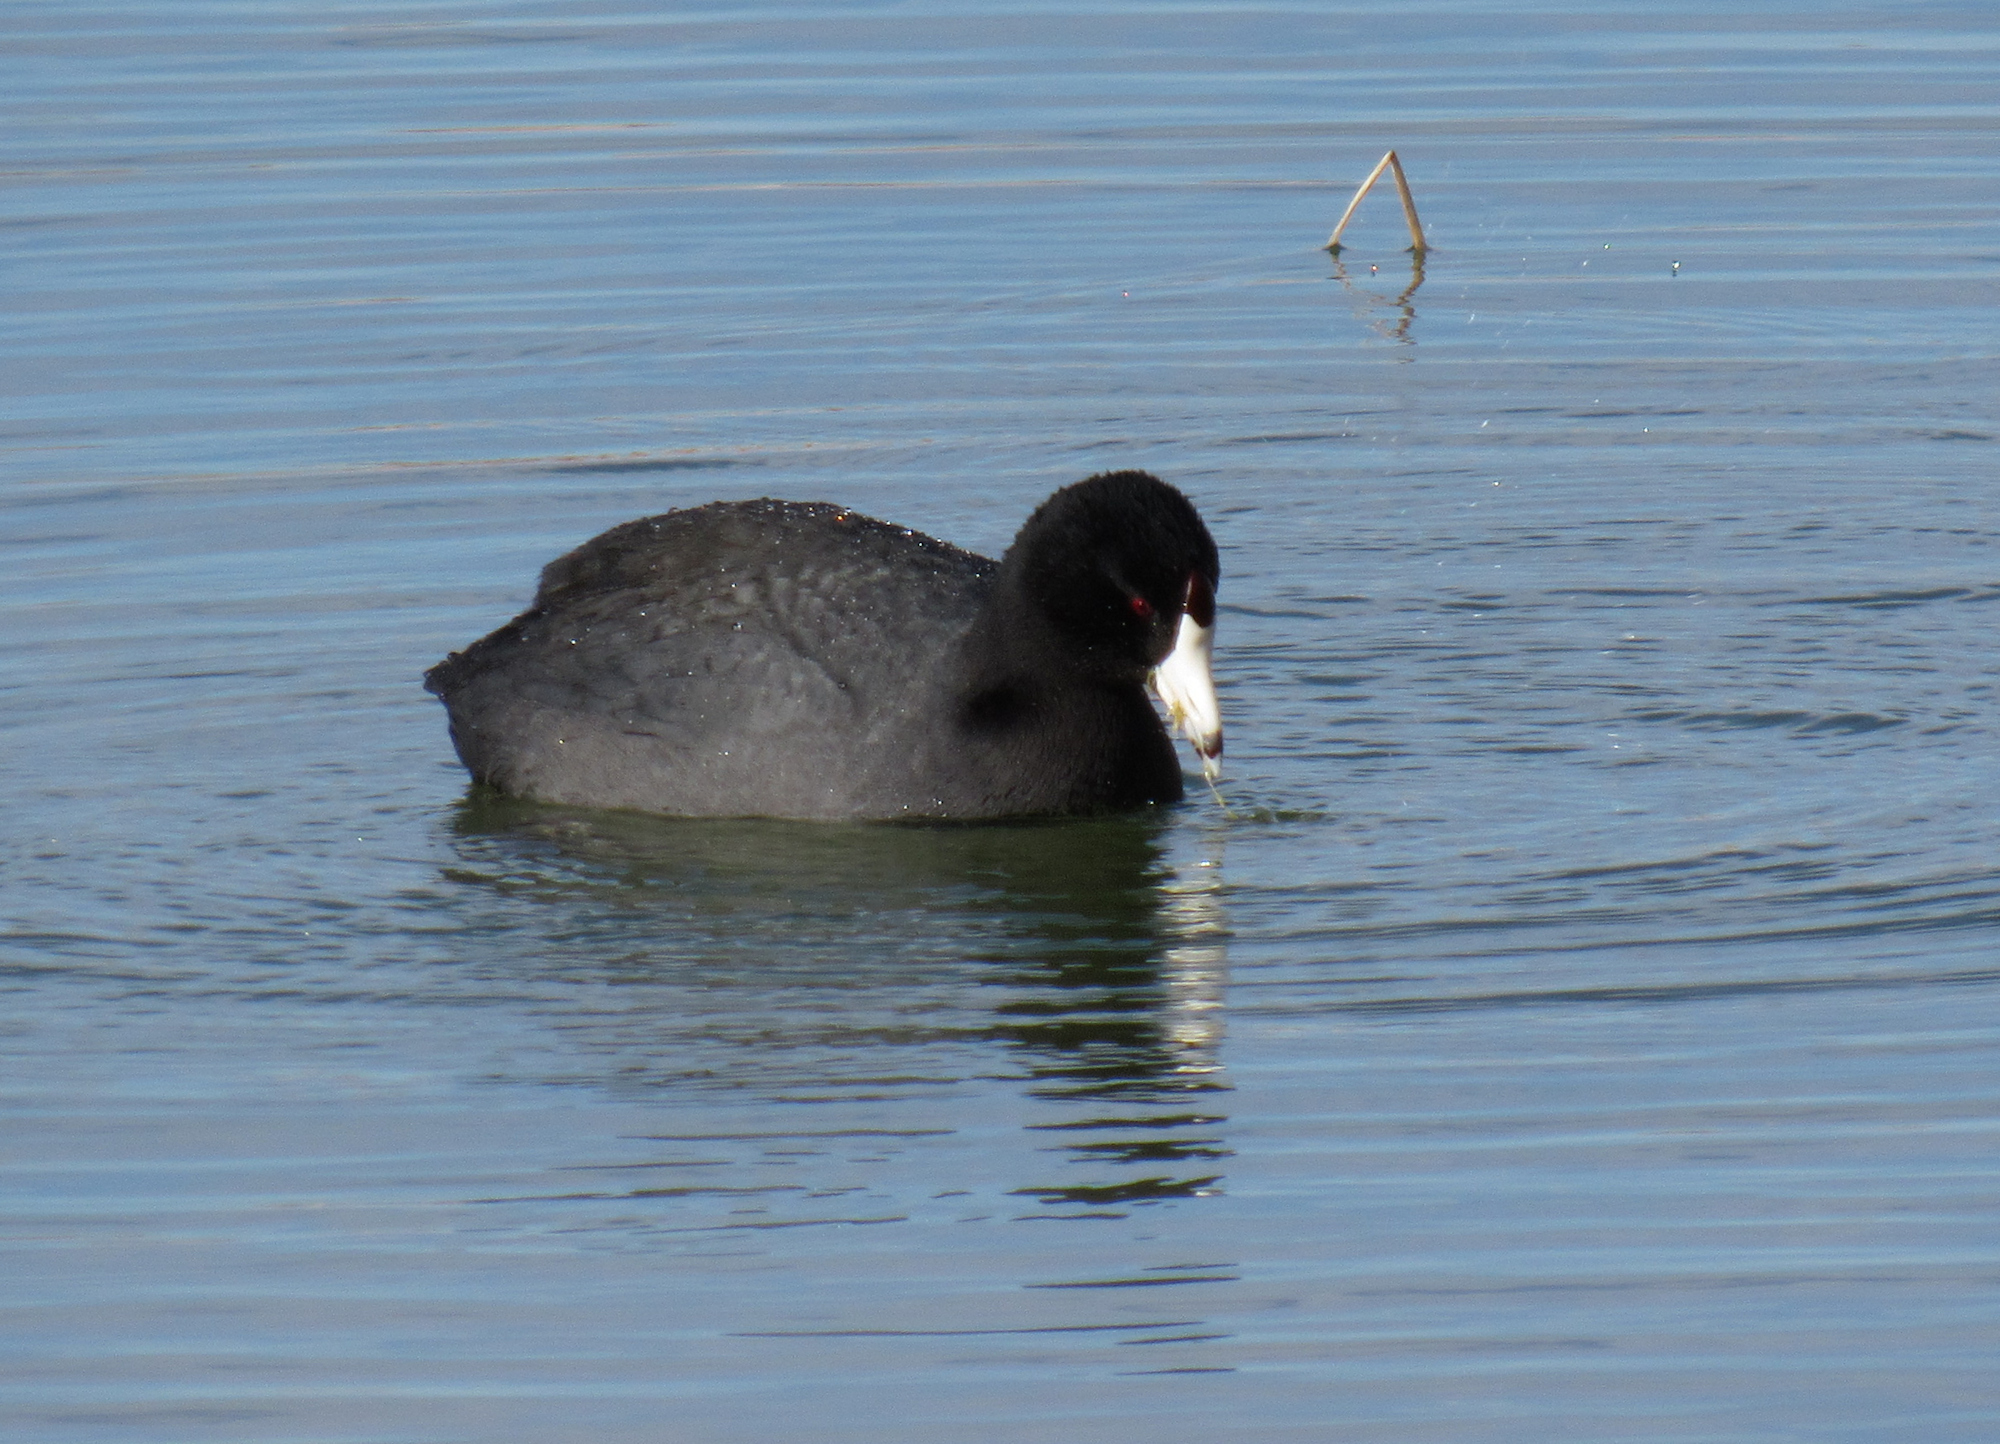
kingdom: Animalia
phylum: Chordata
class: Aves
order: Gruiformes
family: Rallidae
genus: Fulica
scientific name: Fulica americana
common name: American coot
